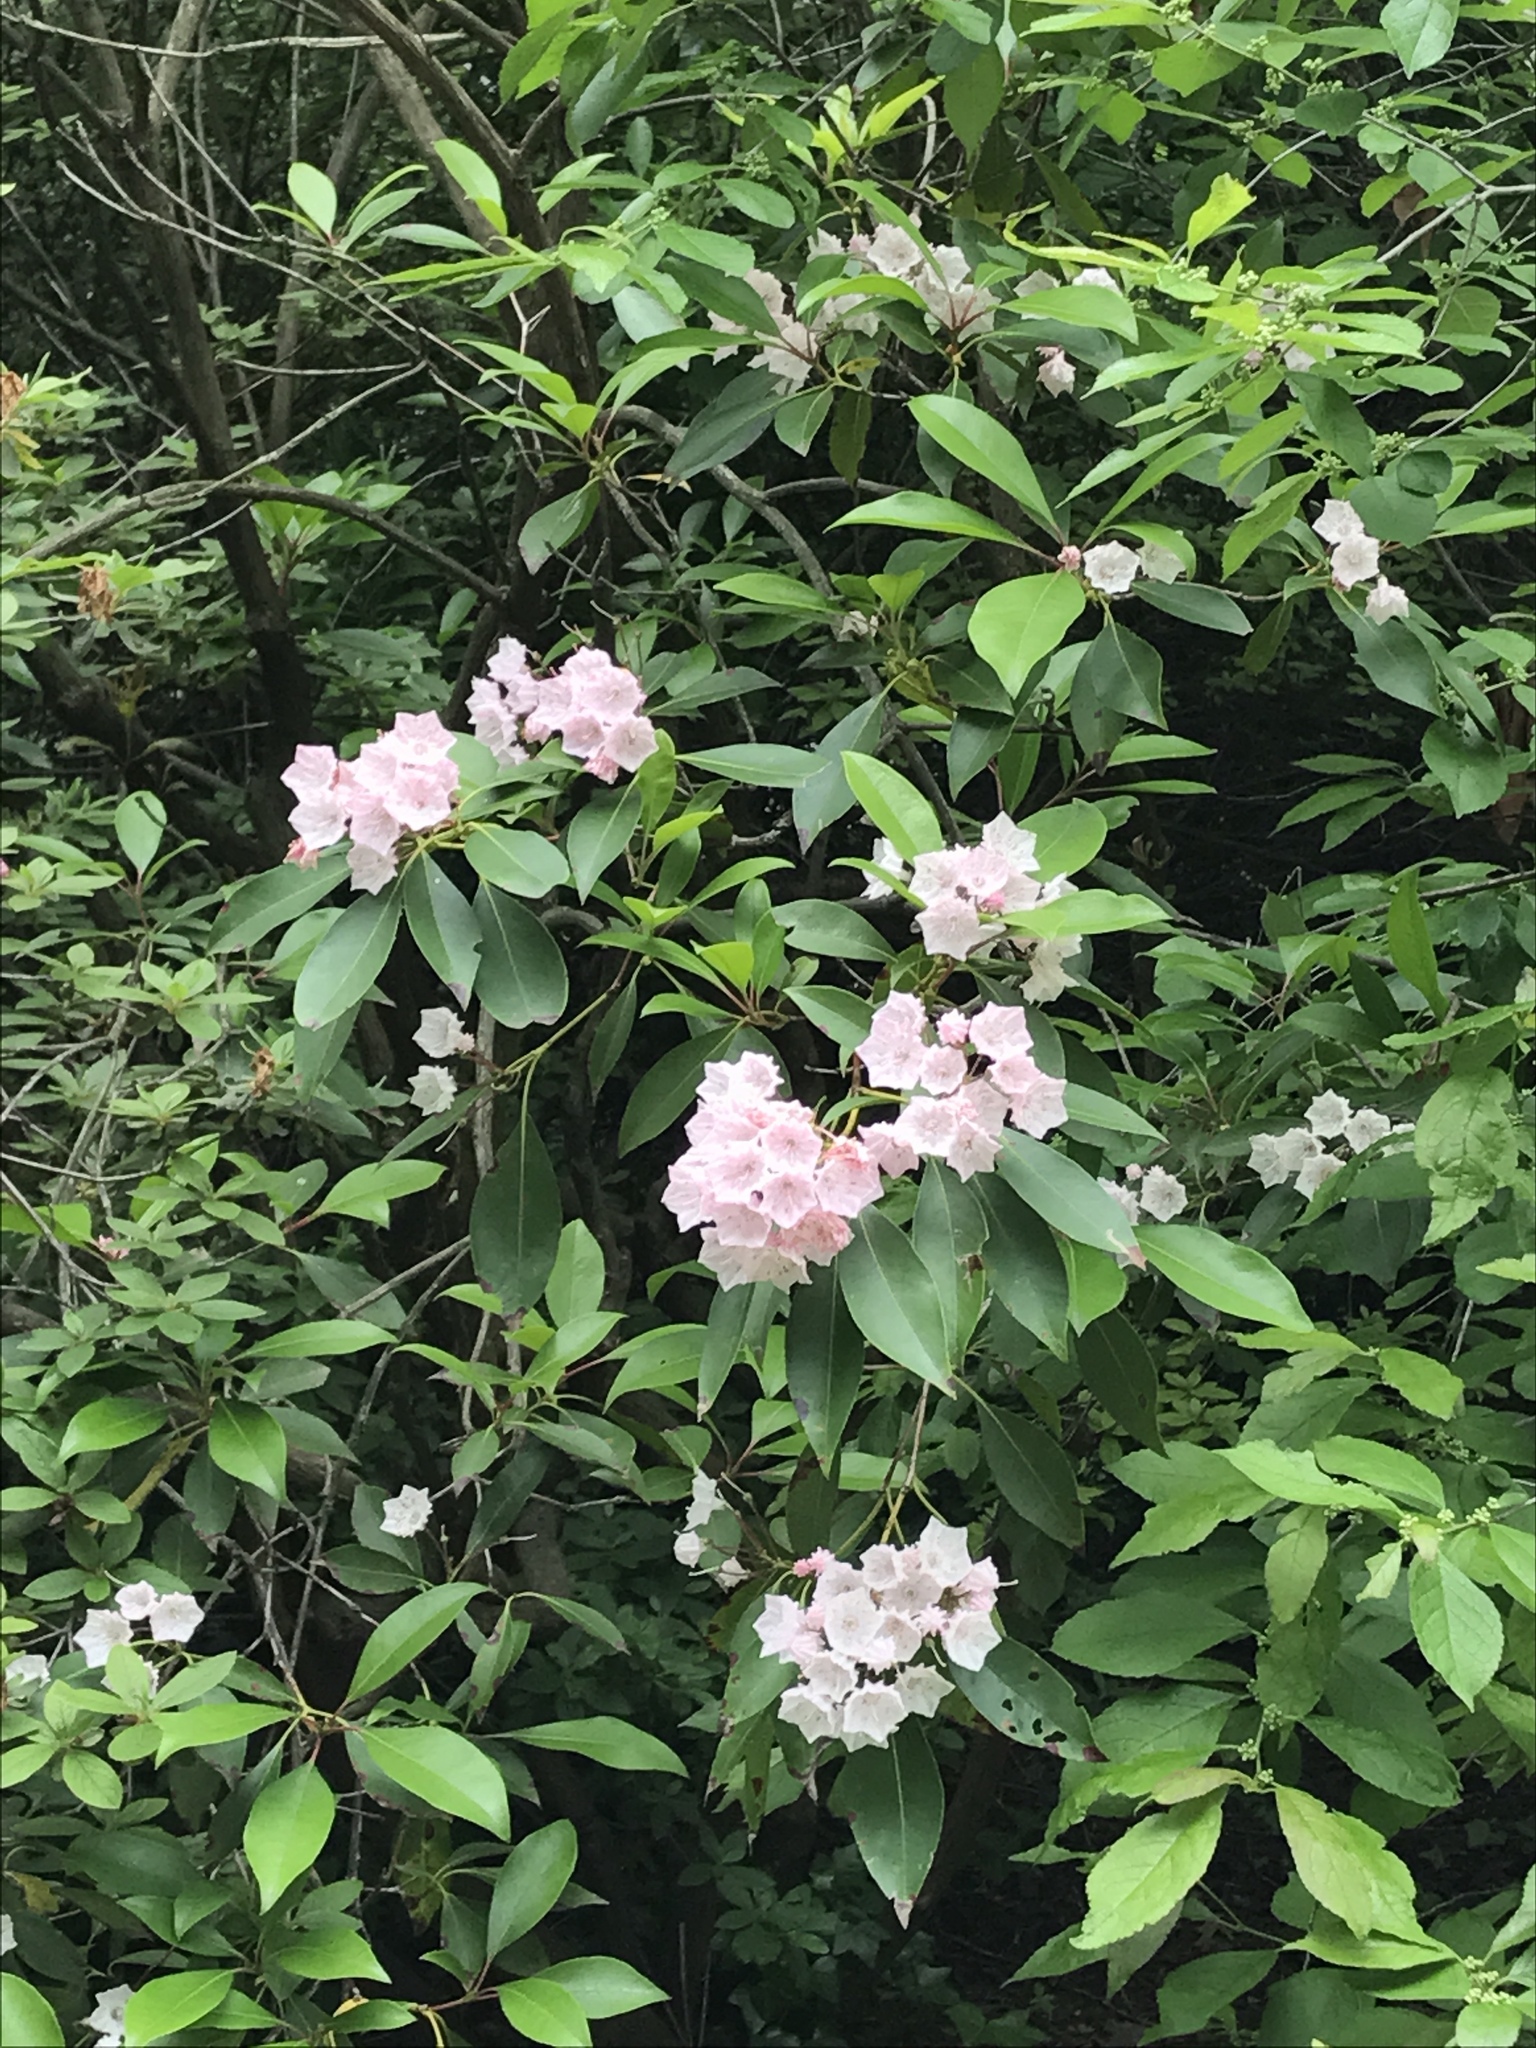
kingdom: Plantae
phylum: Tracheophyta
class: Magnoliopsida
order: Ericales
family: Ericaceae
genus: Kalmia
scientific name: Kalmia latifolia
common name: Mountain-laurel
